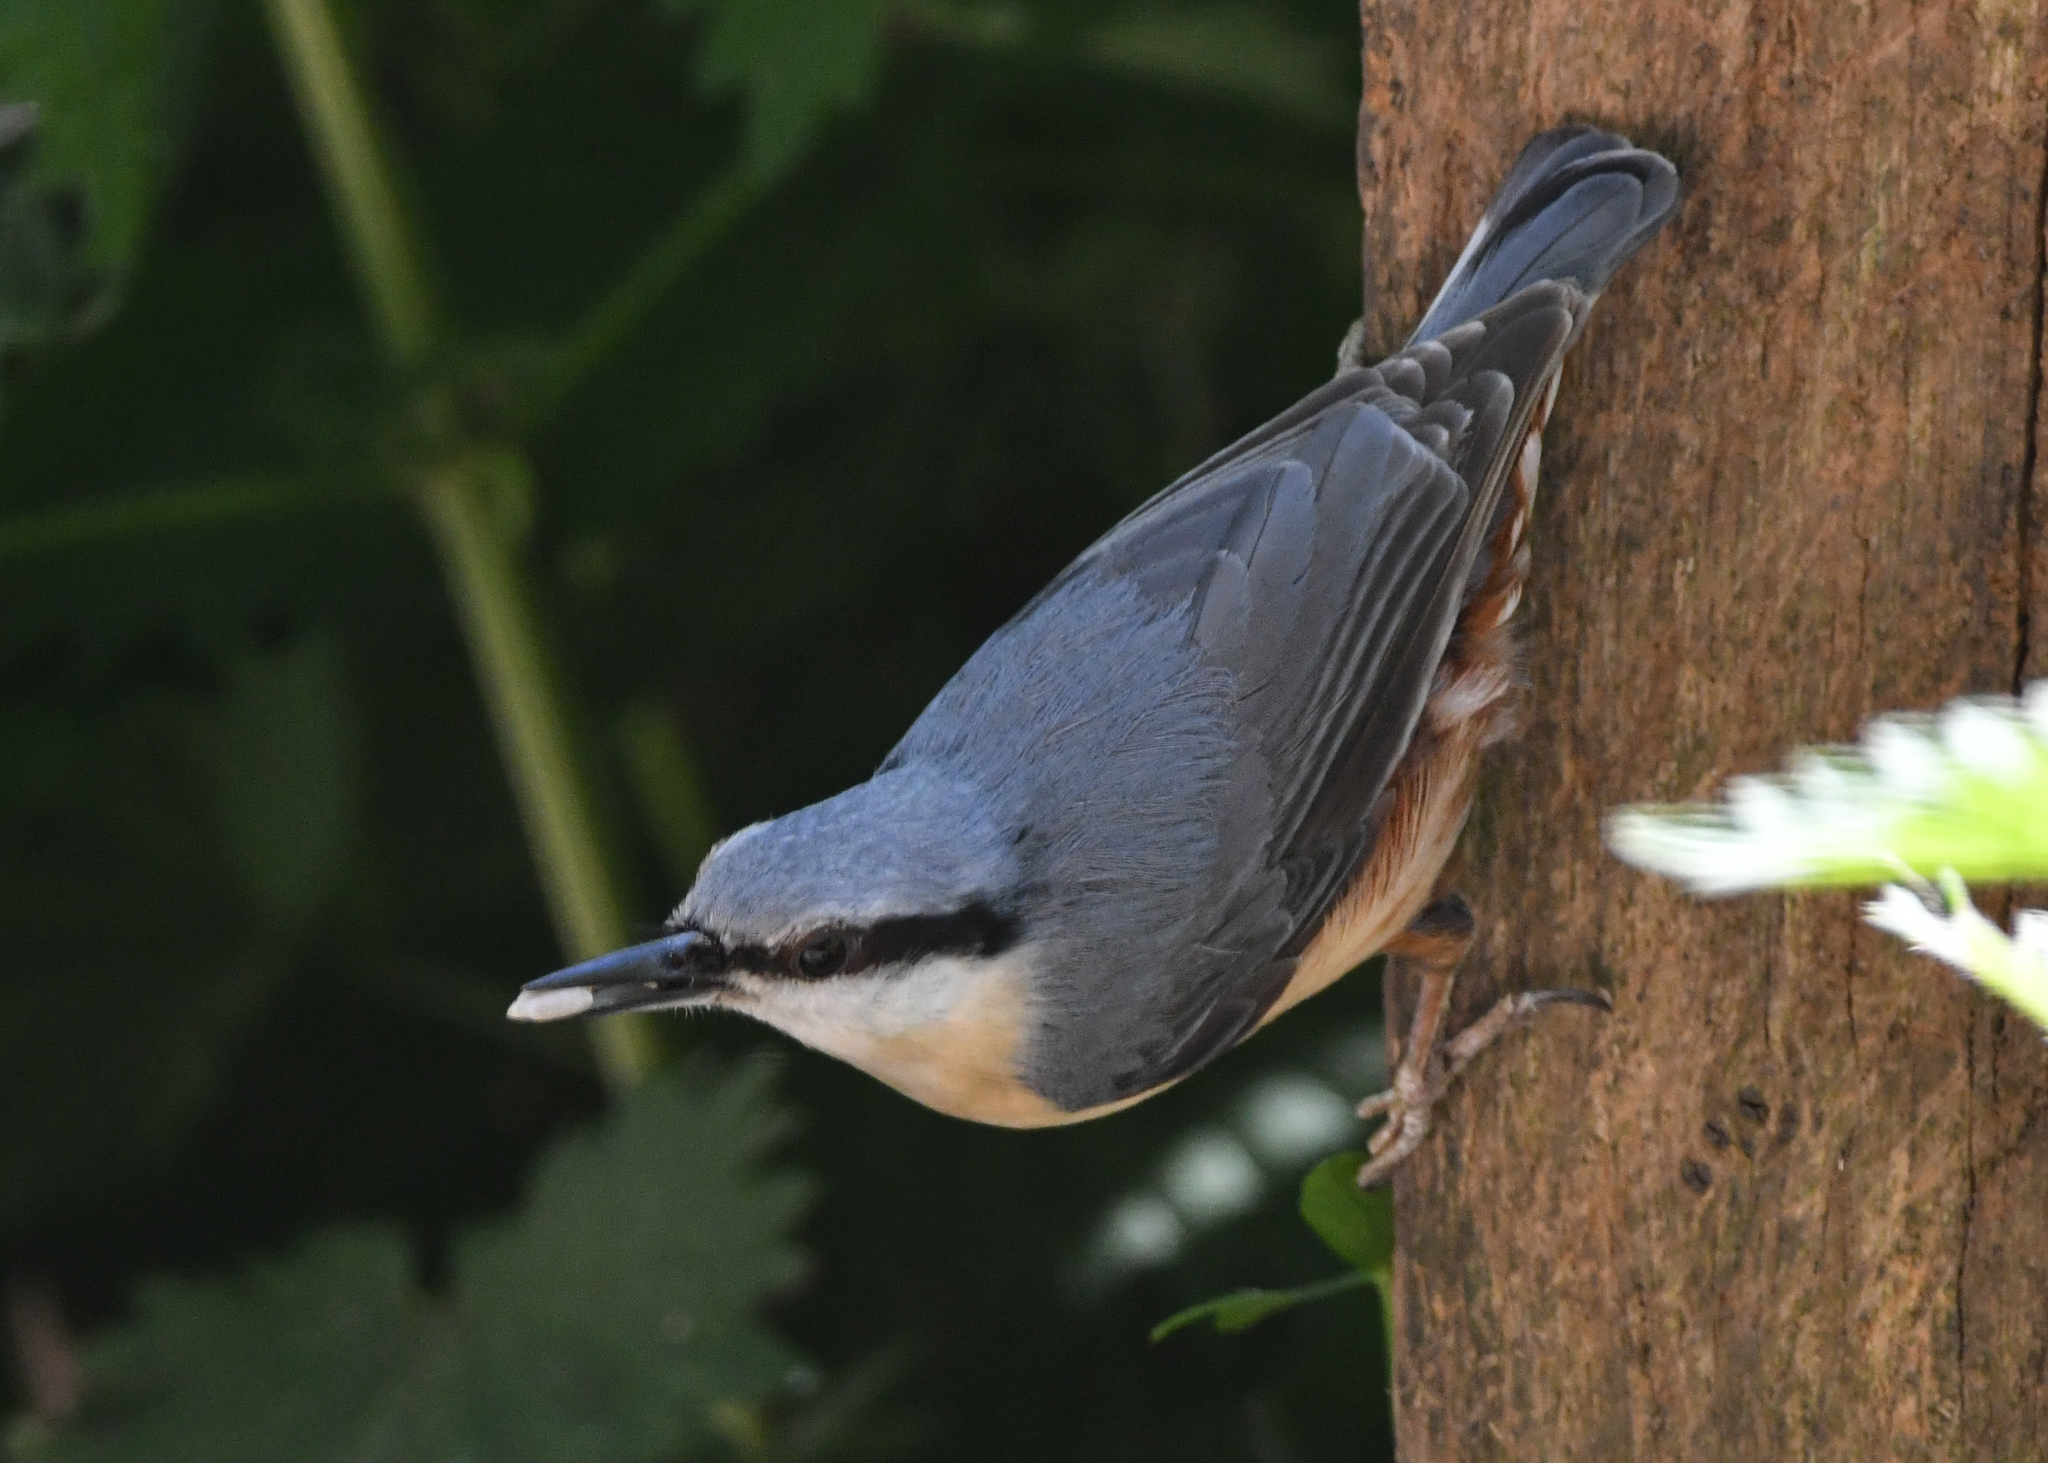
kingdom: Animalia
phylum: Chordata
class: Aves
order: Passeriformes
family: Sittidae
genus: Sitta
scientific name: Sitta europaea
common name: Eurasian nuthatch
